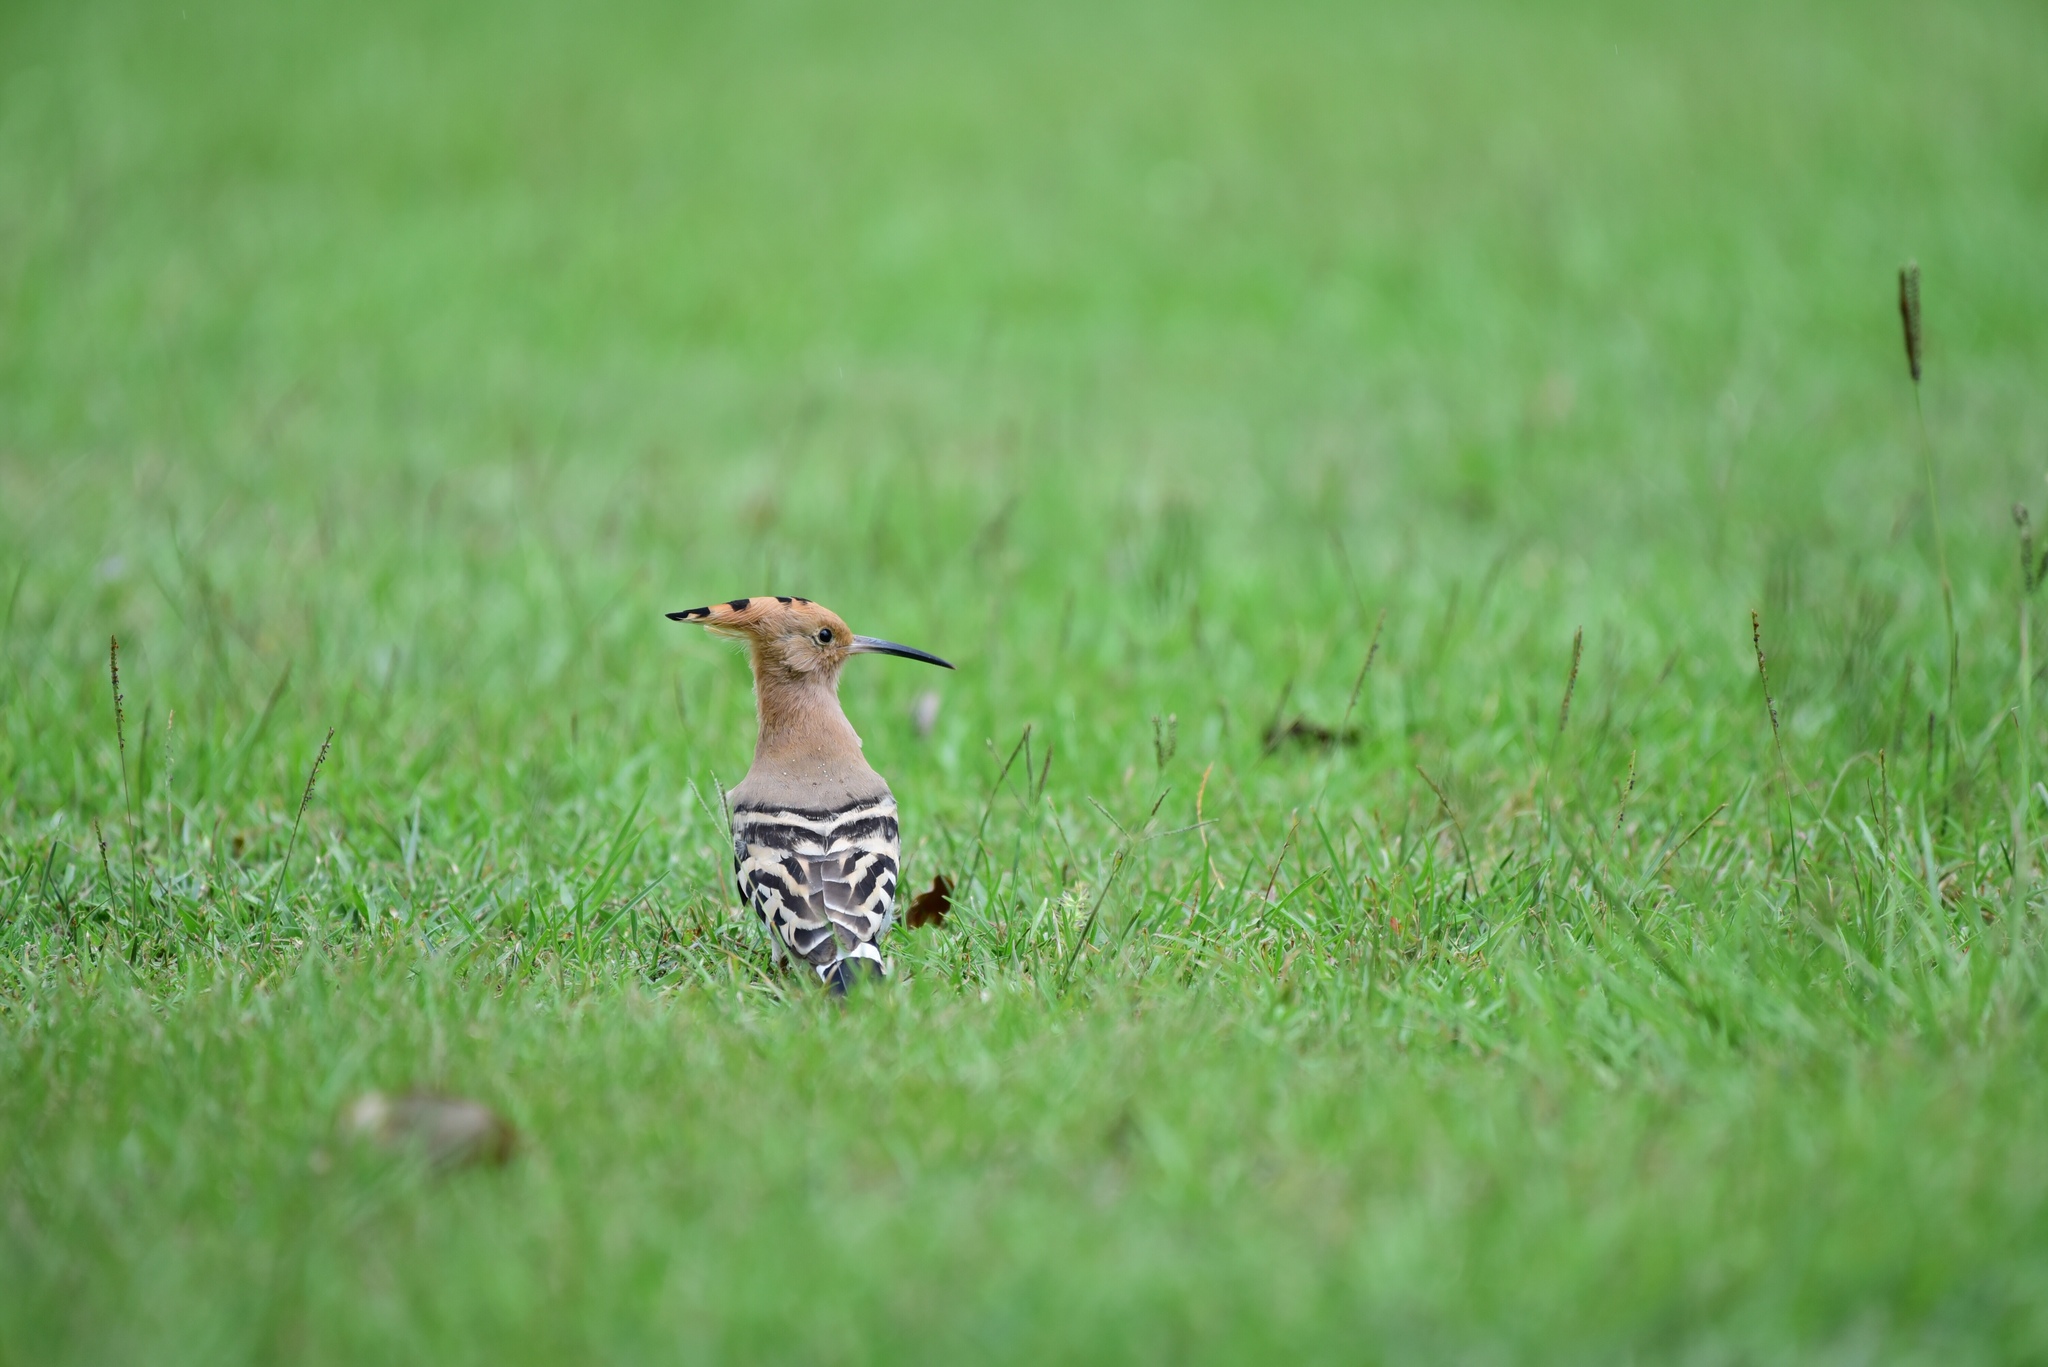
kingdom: Animalia
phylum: Chordata
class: Aves
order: Bucerotiformes
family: Upupidae
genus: Upupa
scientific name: Upupa epops
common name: Eurasian hoopoe
